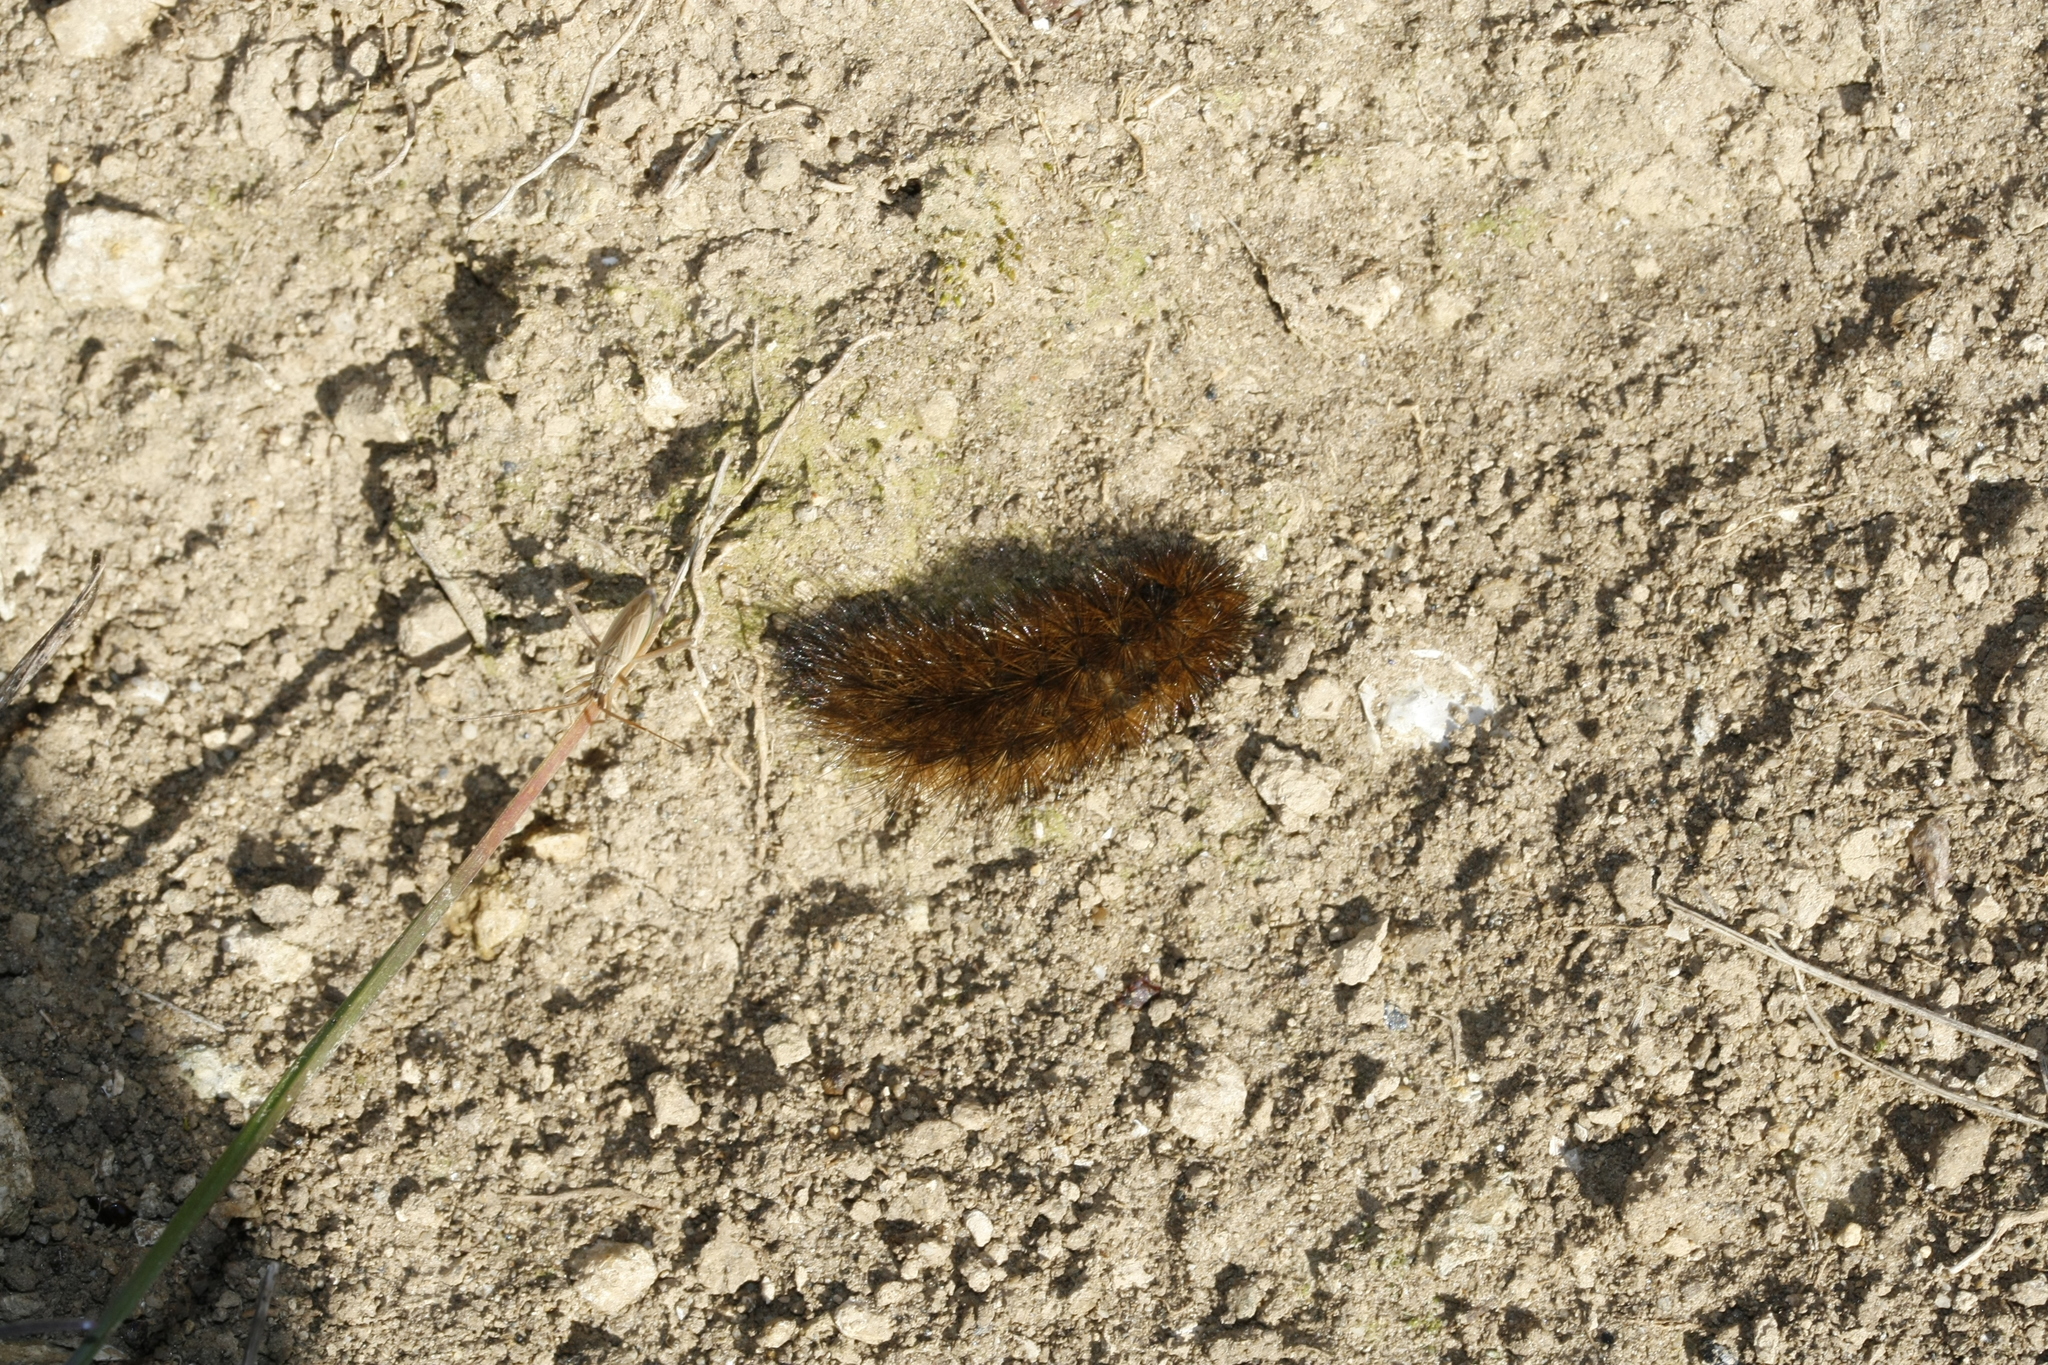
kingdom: Animalia
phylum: Arthropoda
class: Insecta
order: Lepidoptera
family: Erebidae
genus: Phragmatobia
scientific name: Phragmatobia fuliginosa
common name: Ruby tiger
